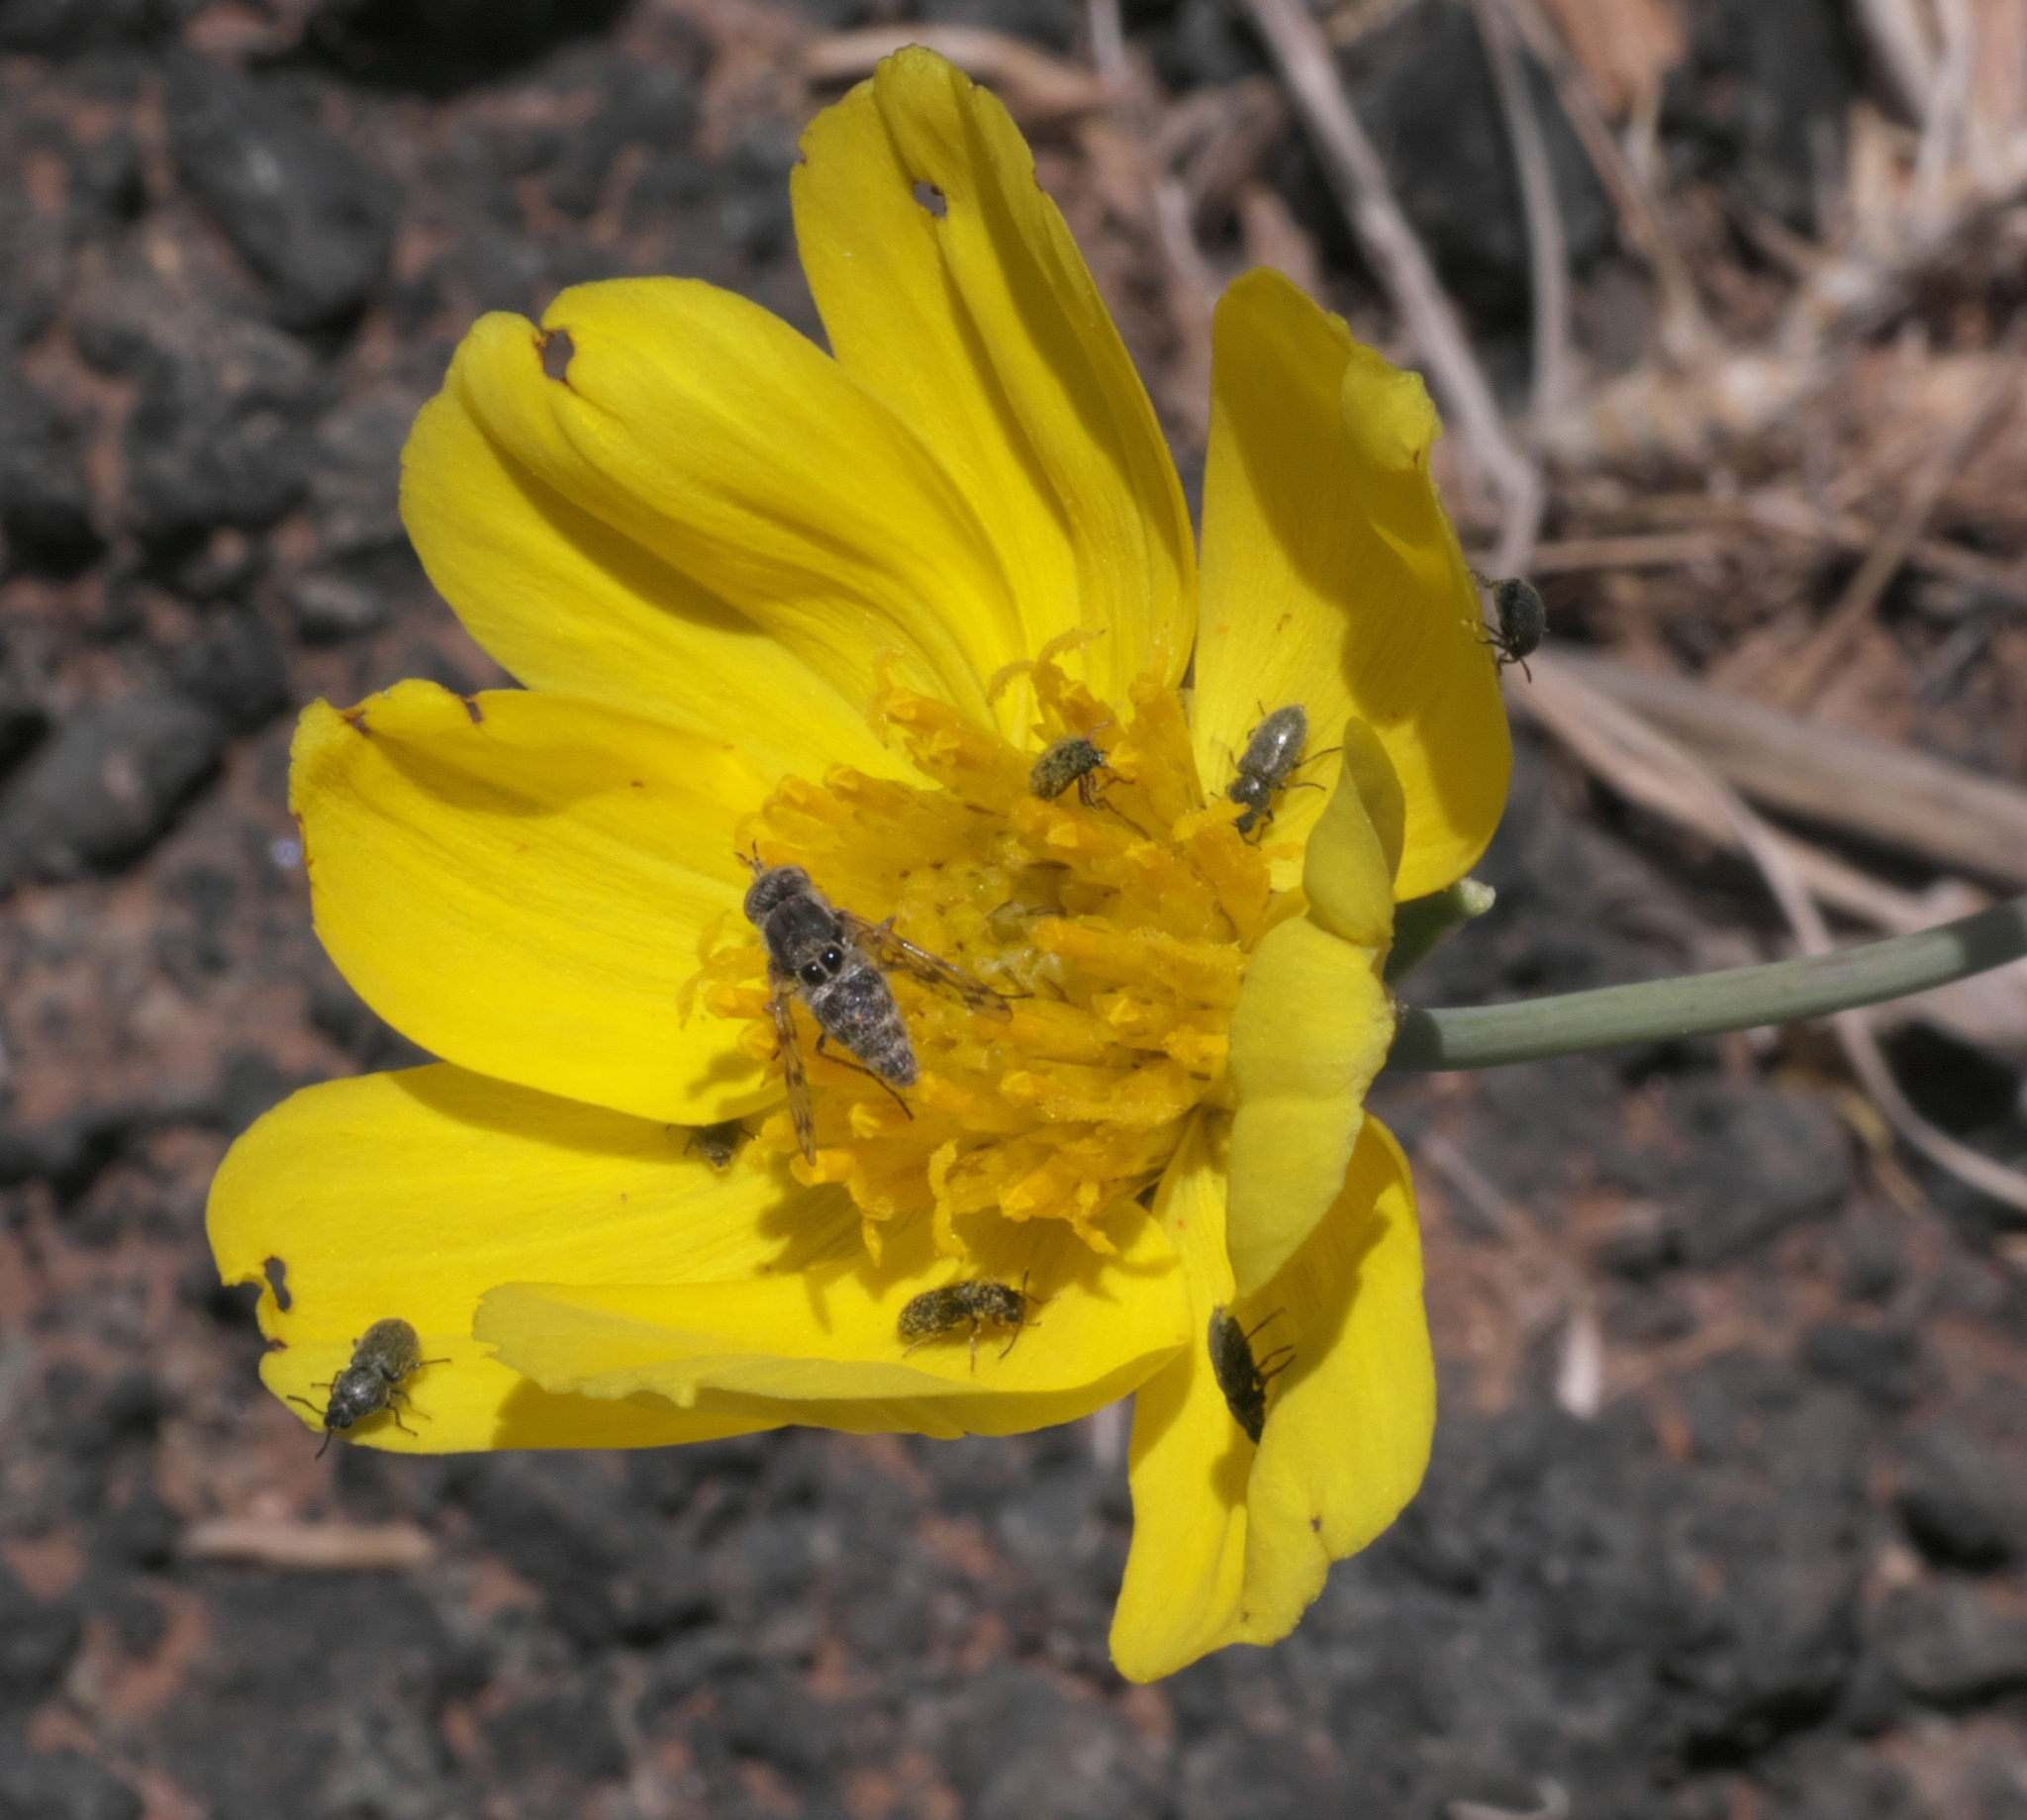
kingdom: Animalia
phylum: Arthropoda
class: Insecta
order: Diptera
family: Bombyliidae
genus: Geminaria
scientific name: Geminaria canalis
